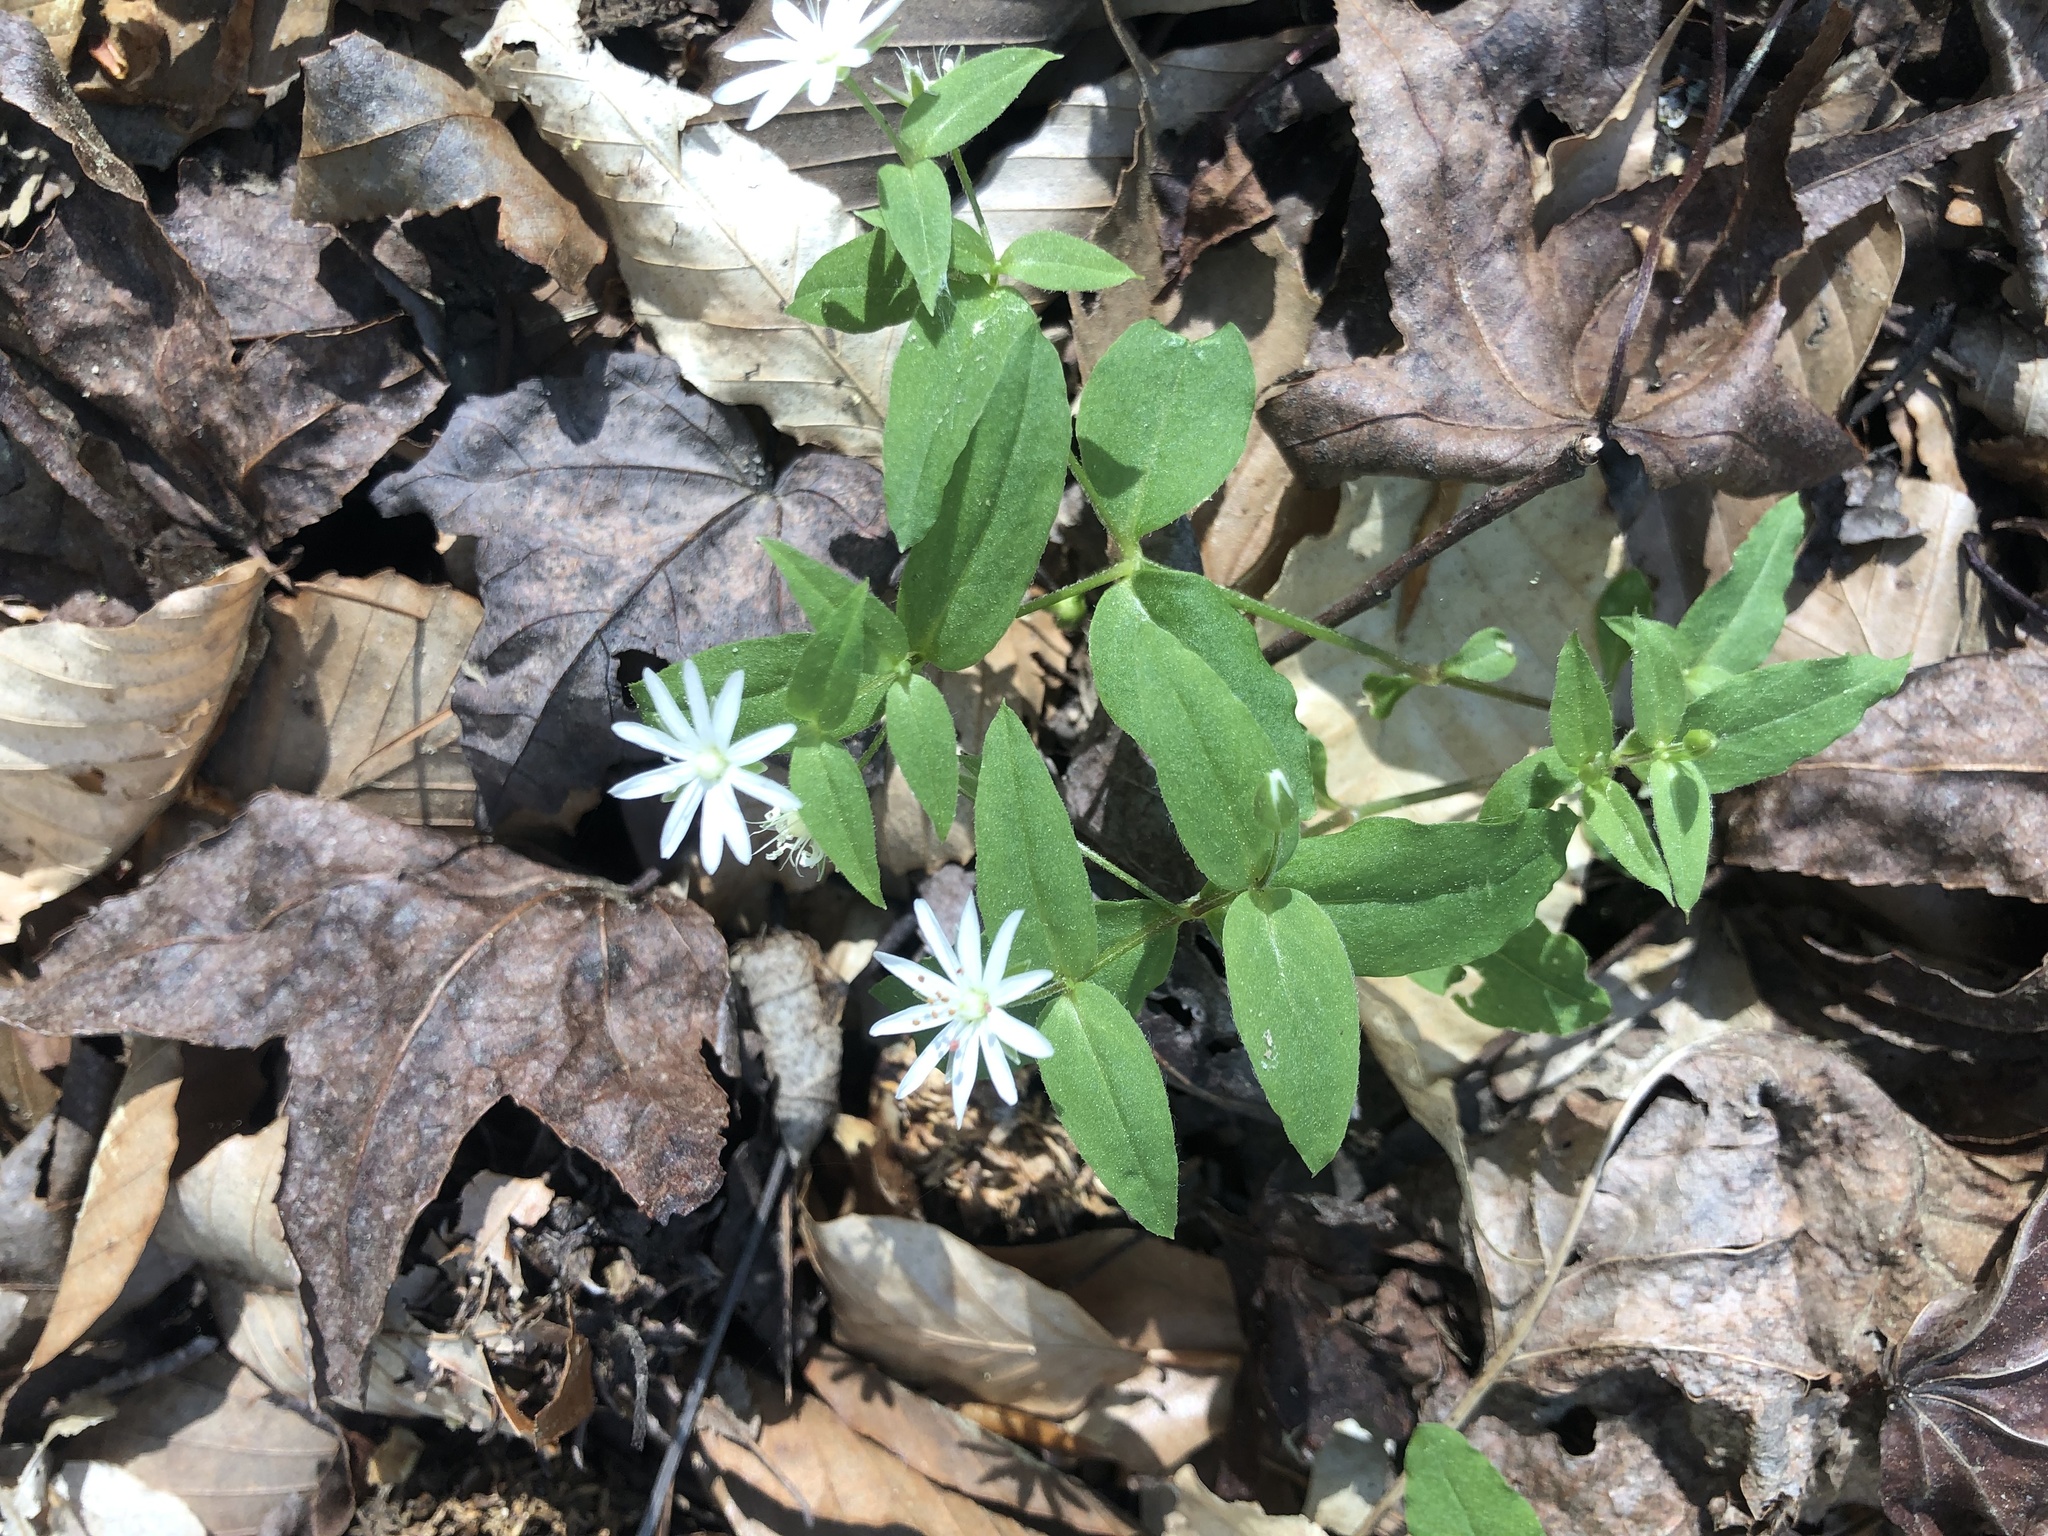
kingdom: Plantae
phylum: Tracheophyta
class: Magnoliopsida
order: Caryophyllales
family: Caryophyllaceae
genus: Stellaria
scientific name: Stellaria pubera
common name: Star chickweed
